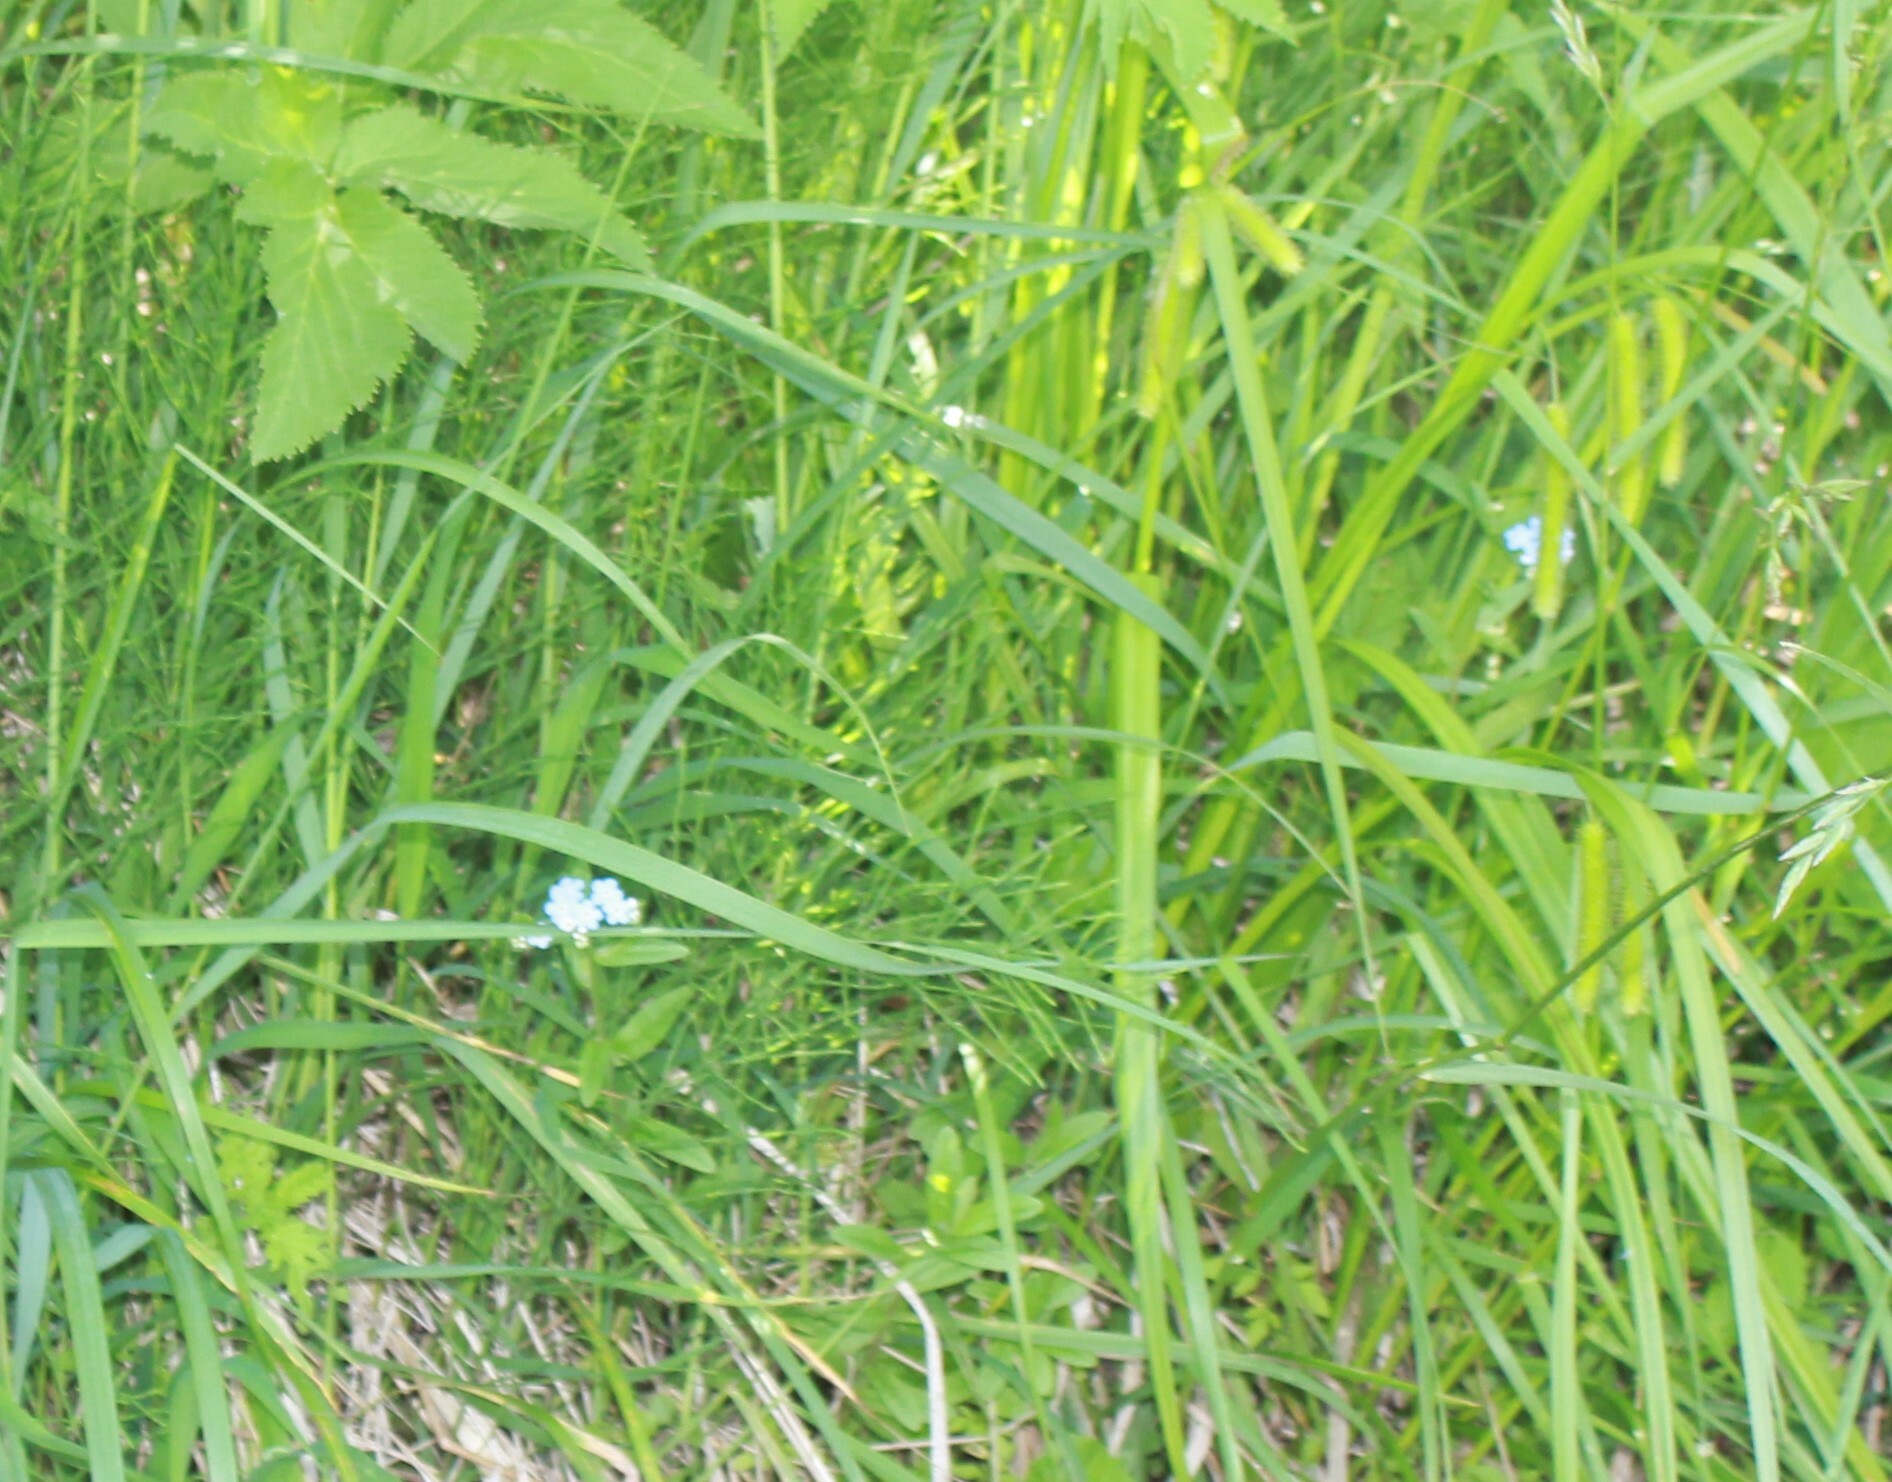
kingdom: Plantae
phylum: Tracheophyta
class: Magnoliopsida
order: Boraginales
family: Boraginaceae
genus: Myosotis
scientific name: Myosotis scorpioides
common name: Water forget-me-not
